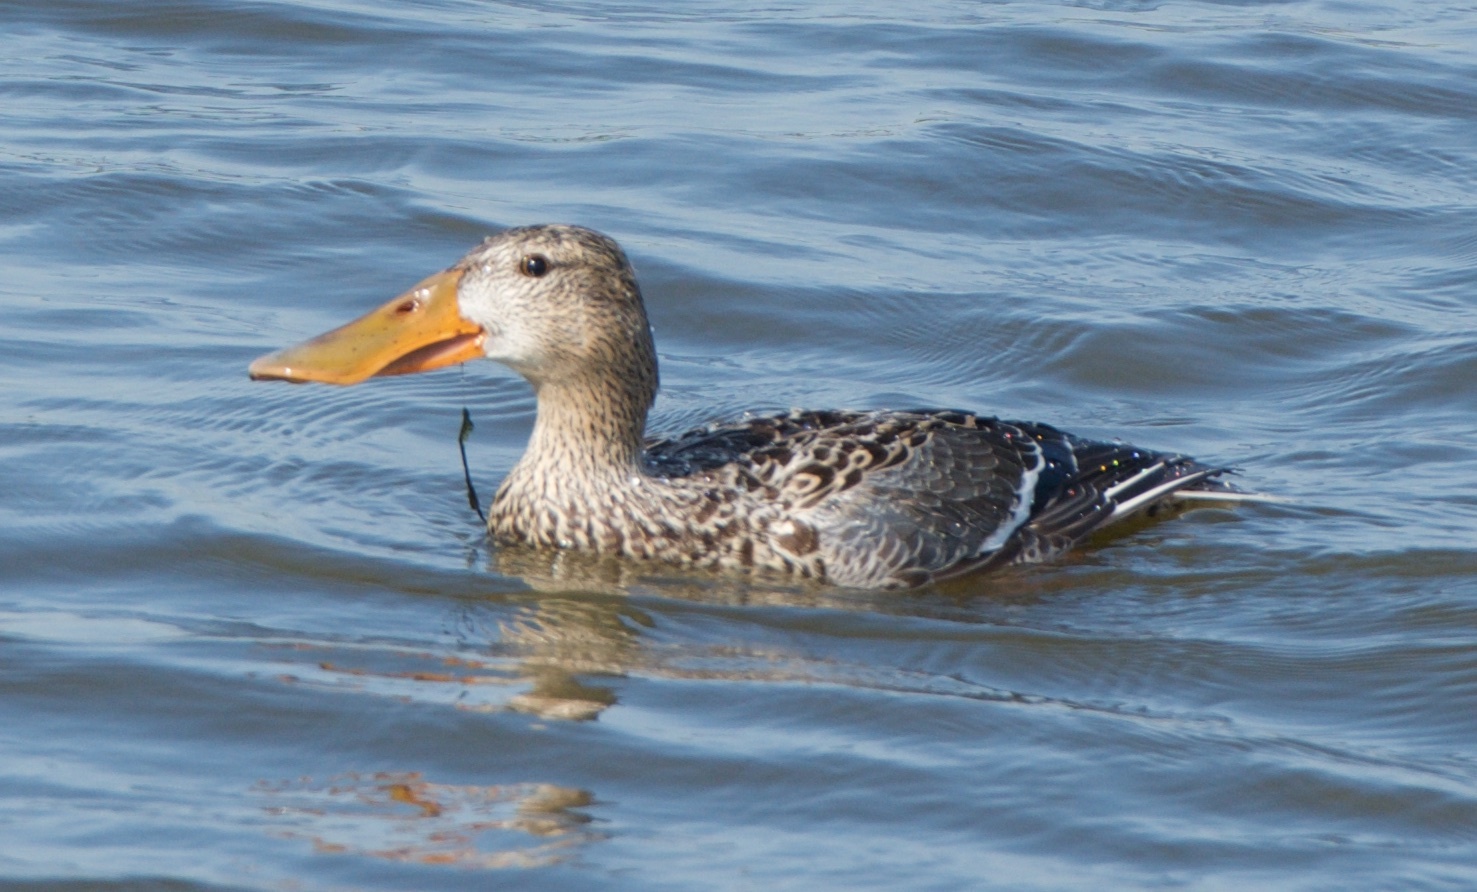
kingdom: Animalia
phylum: Chordata
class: Aves
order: Anseriformes
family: Anatidae
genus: Spatula
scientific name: Spatula clypeata
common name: Northern shoveler
